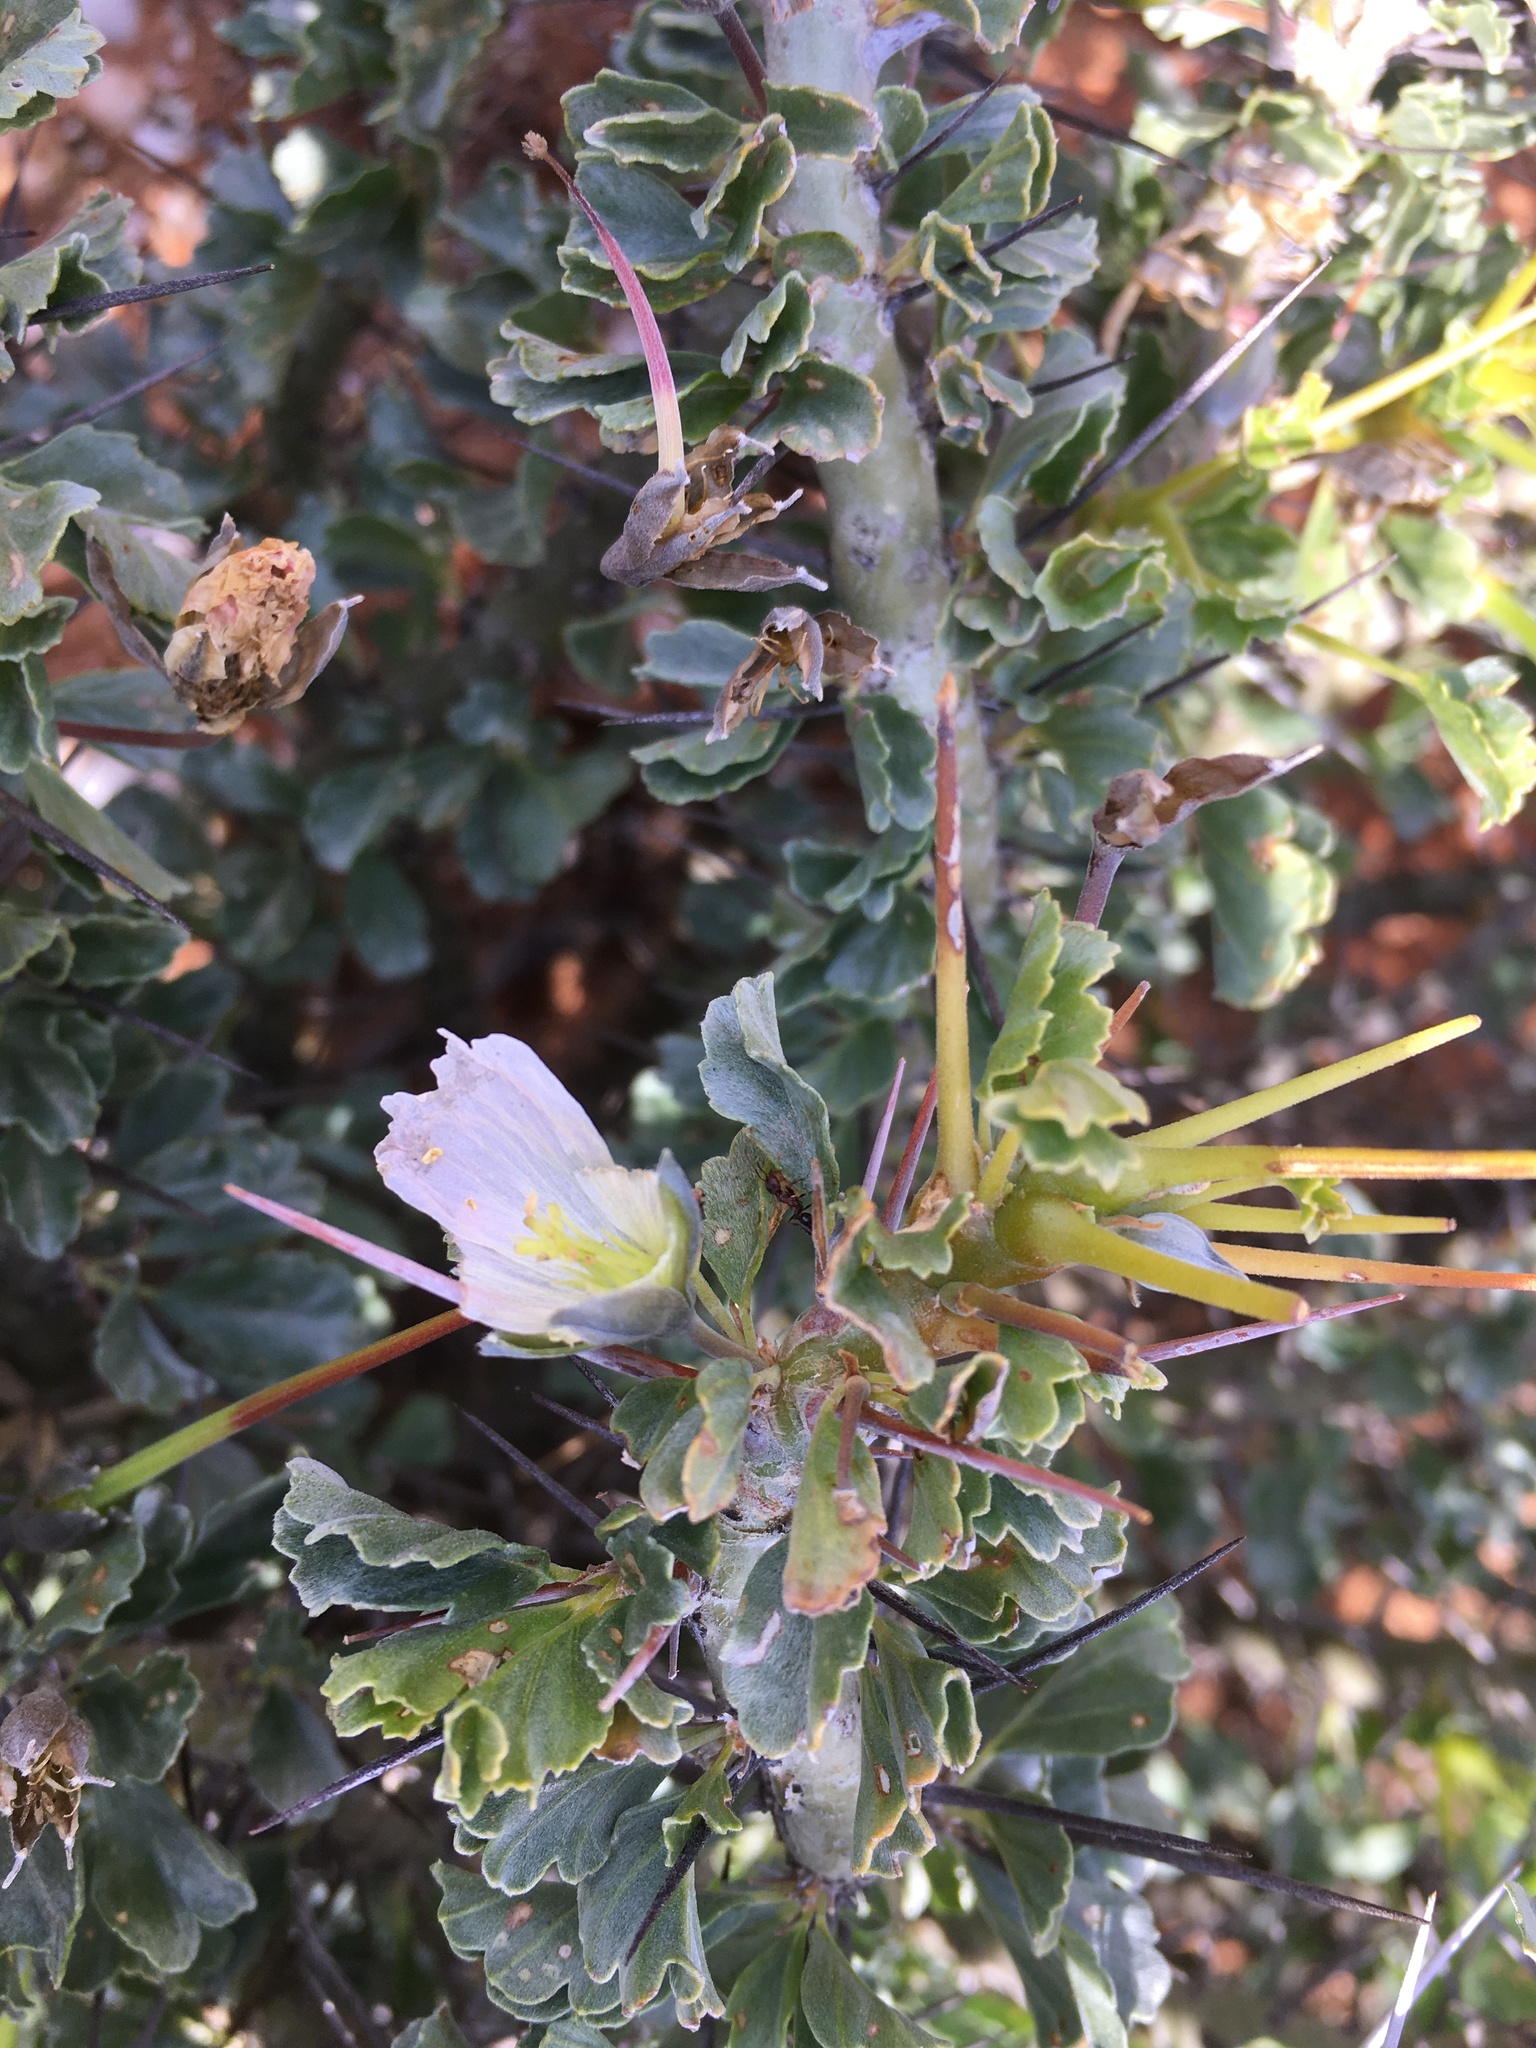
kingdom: Plantae
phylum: Tracheophyta
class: Magnoliopsida
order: Geraniales
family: Geraniaceae
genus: Monsonia
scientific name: Monsonia crassicaulis
